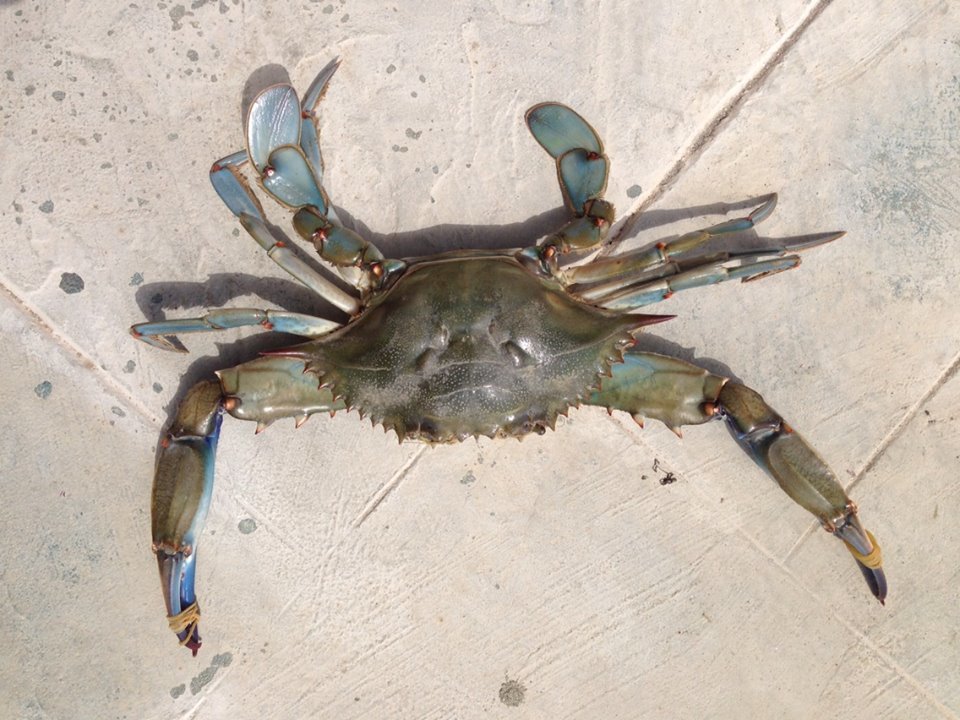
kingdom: Animalia
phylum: Arthropoda
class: Malacostraca
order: Decapoda
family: Portunidae
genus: Callinectes
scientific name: Callinectes sapidus
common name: Blue crab
